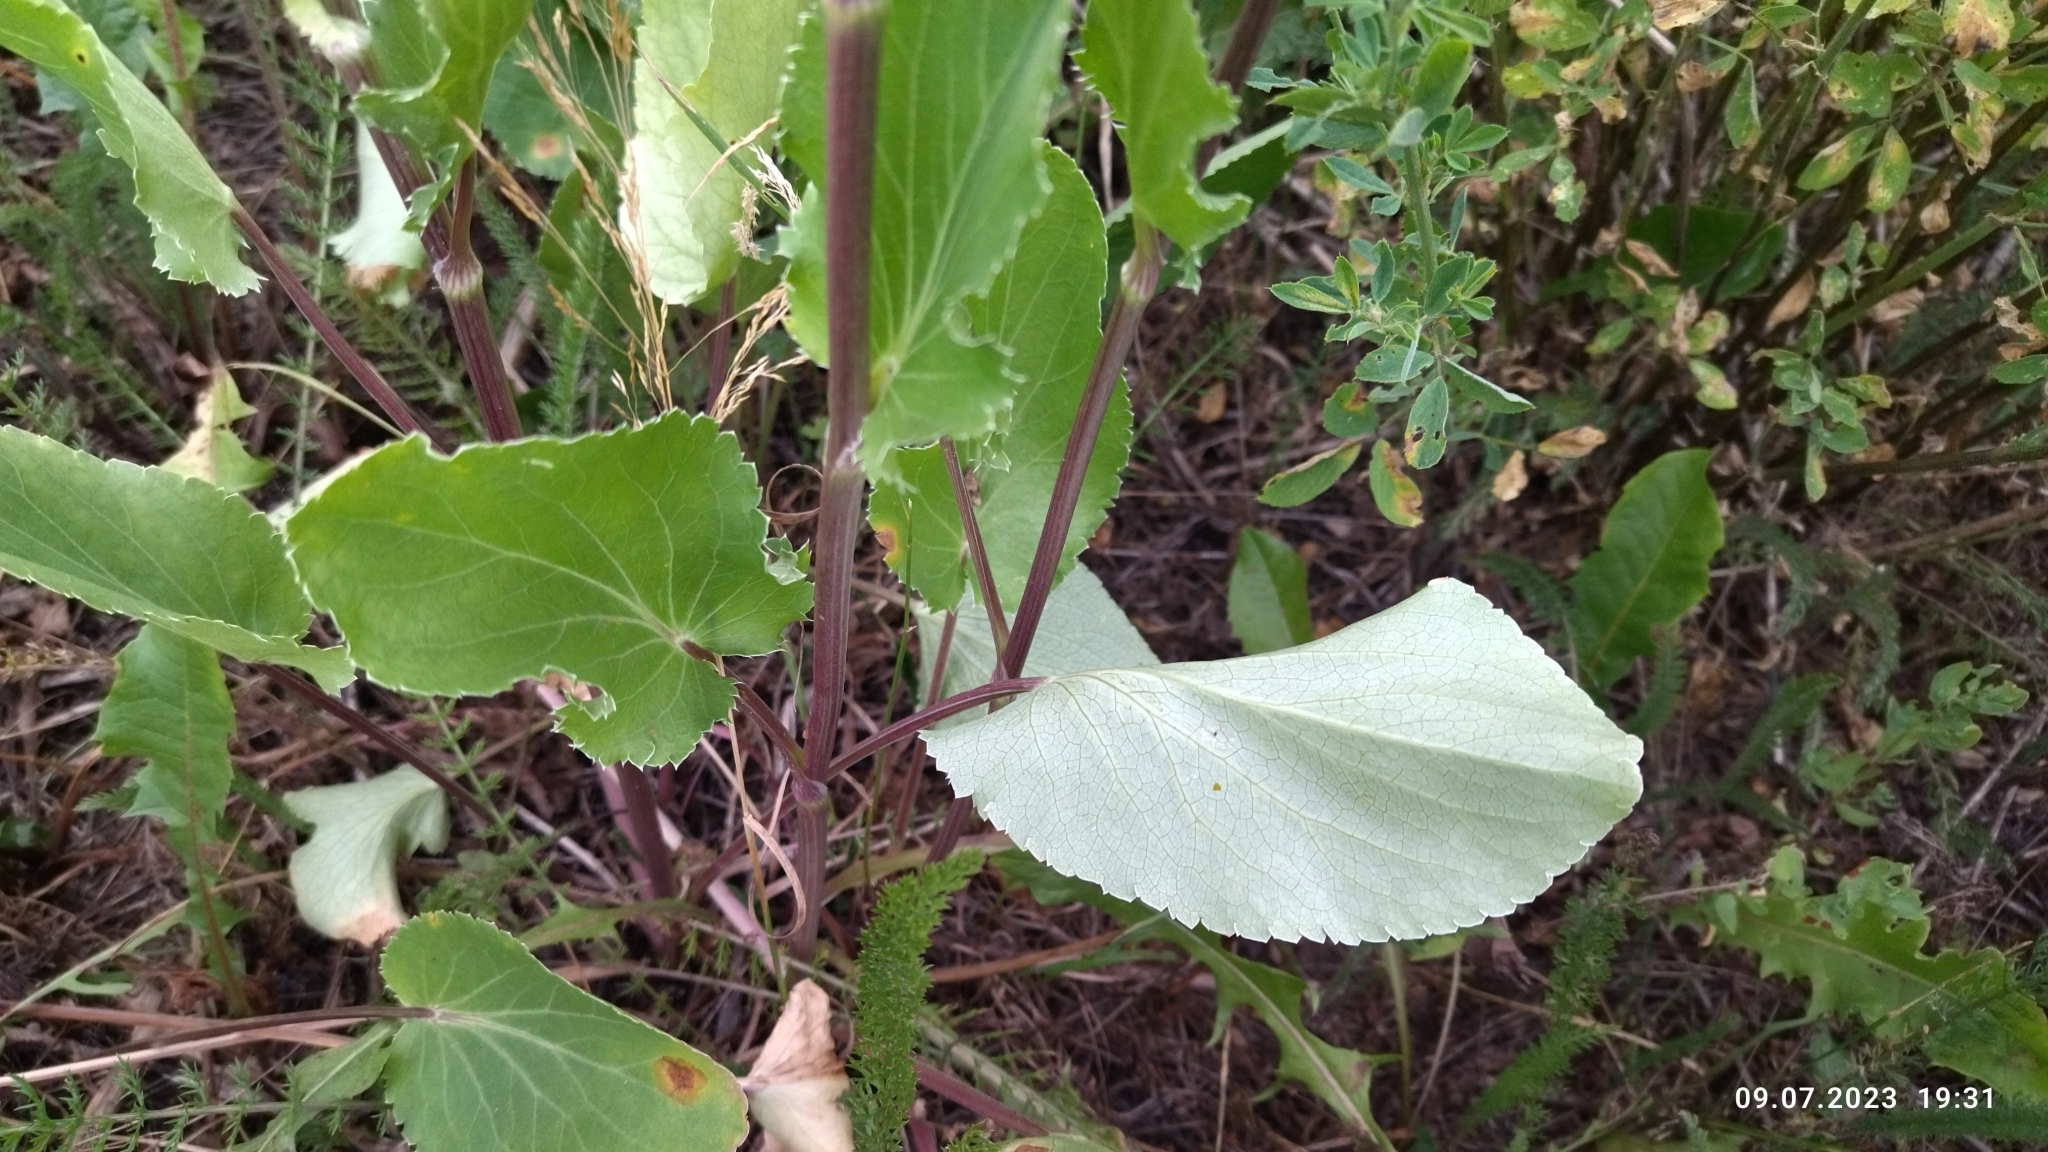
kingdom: Plantae
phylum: Tracheophyta
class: Magnoliopsida
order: Apiales
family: Apiaceae
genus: Eryngium
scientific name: Eryngium planum
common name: Blue eryngo
